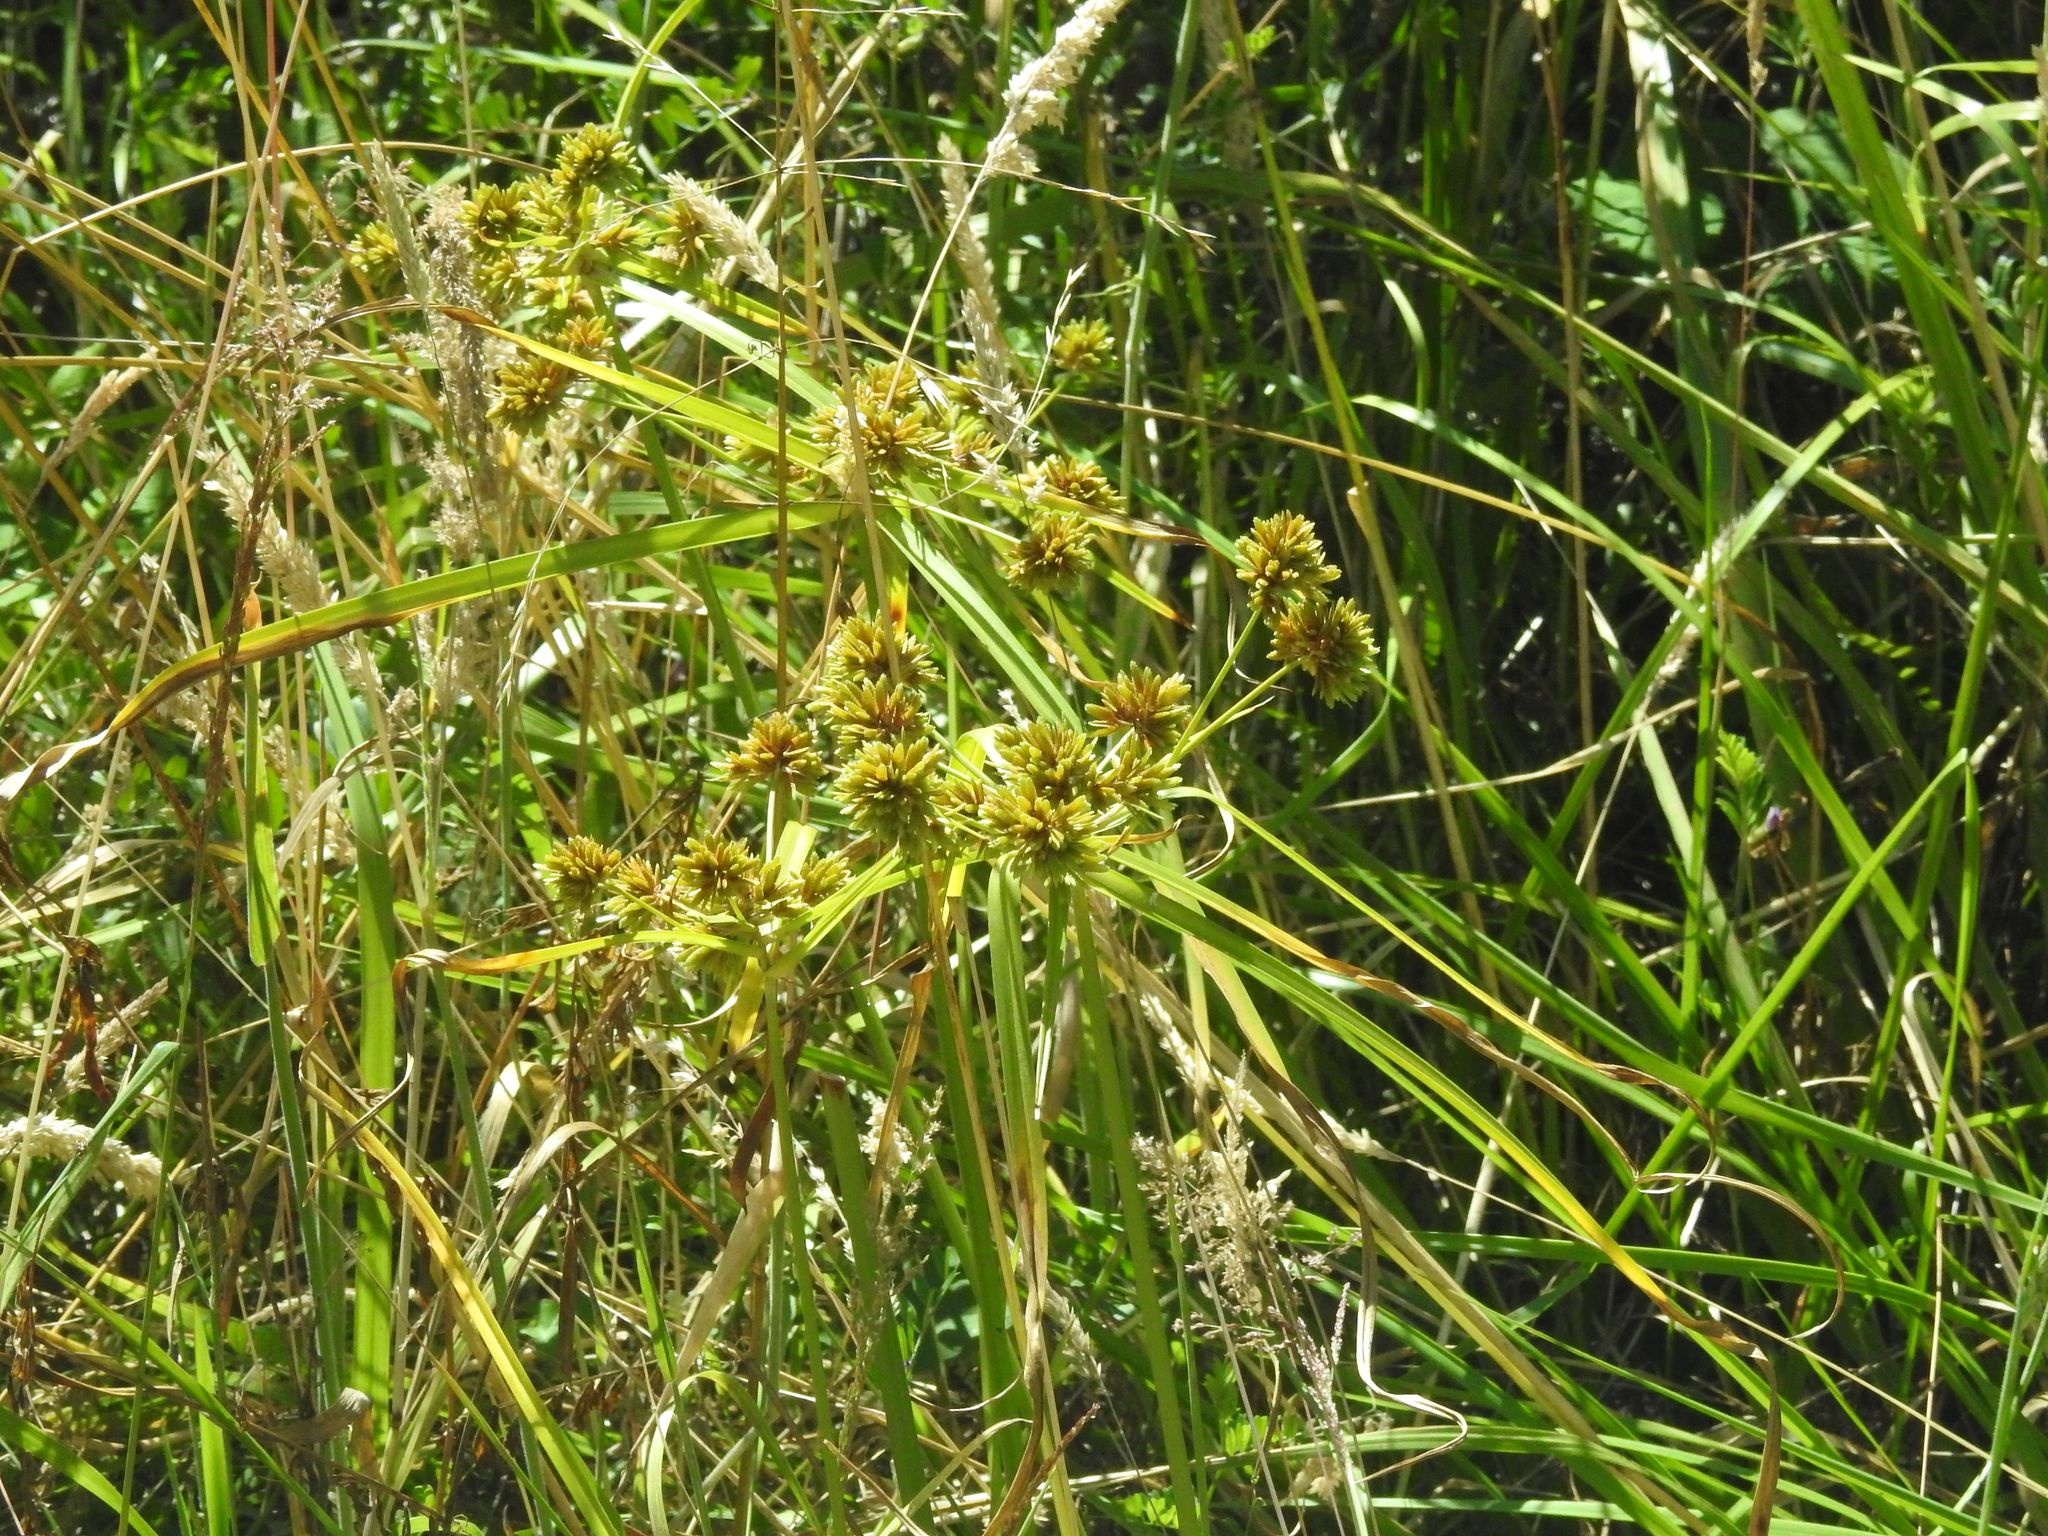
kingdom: Plantae
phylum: Tracheophyta
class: Liliopsida
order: Poales
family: Cyperaceae
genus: Cyperus
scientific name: Cyperus eragrostis
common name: Tall flatsedge
